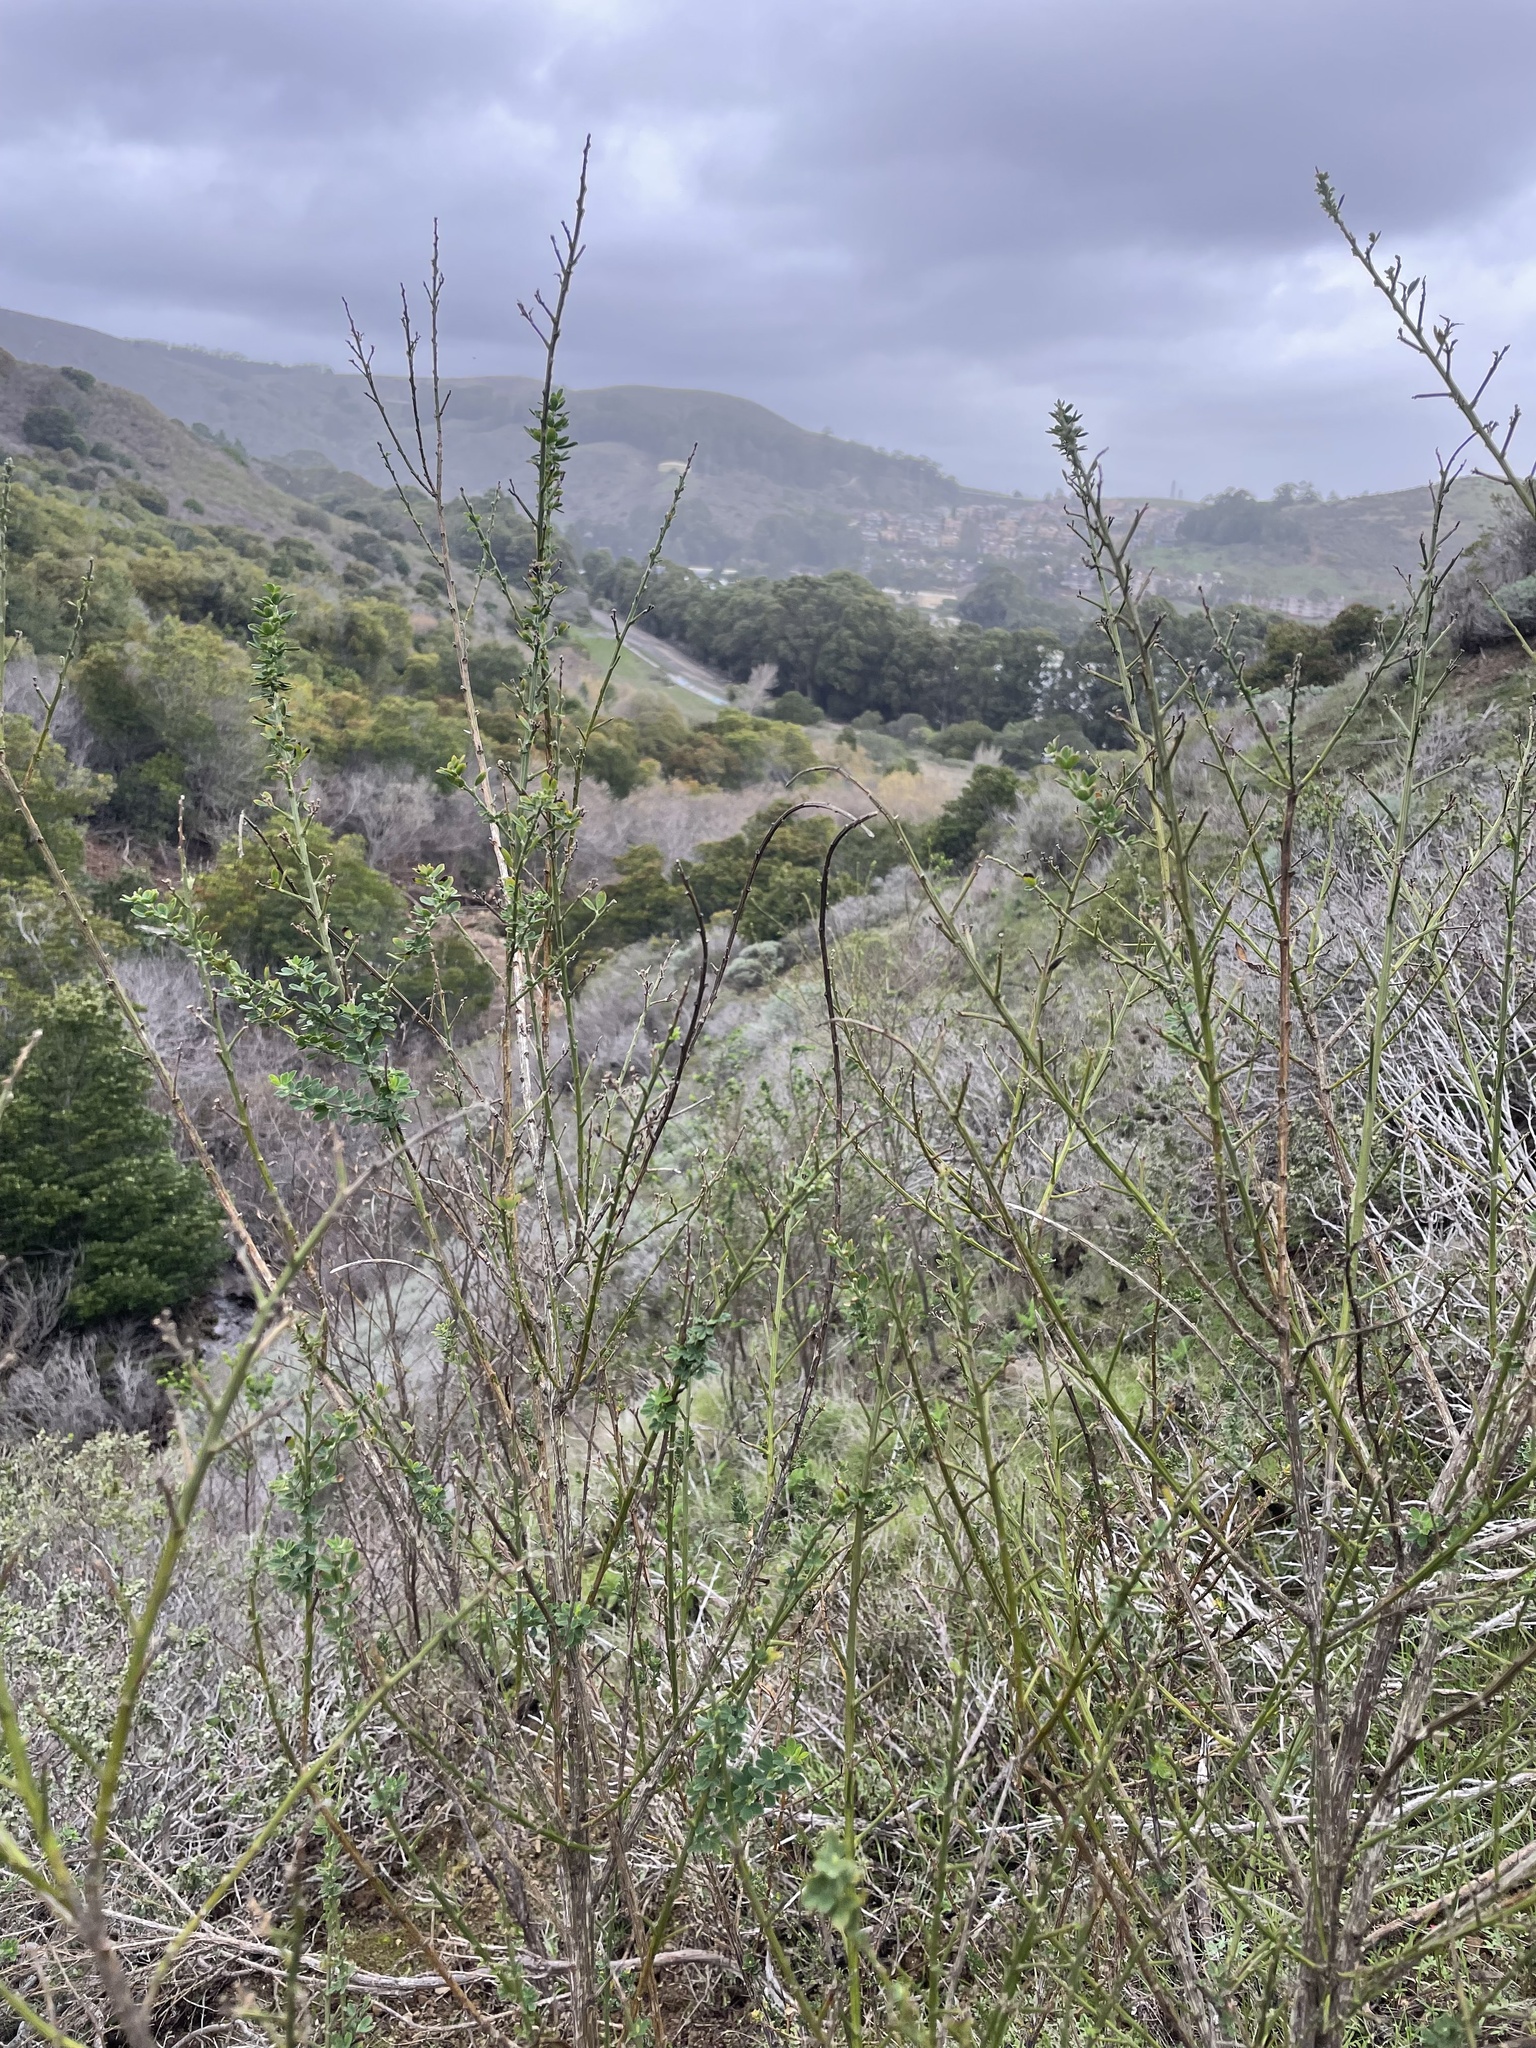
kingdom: Plantae
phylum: Tracheophyta
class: Magnoliopsida
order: Fabales
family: Fabaceae
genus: Genista
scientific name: Genista monspessulana
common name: Montpellier broom
